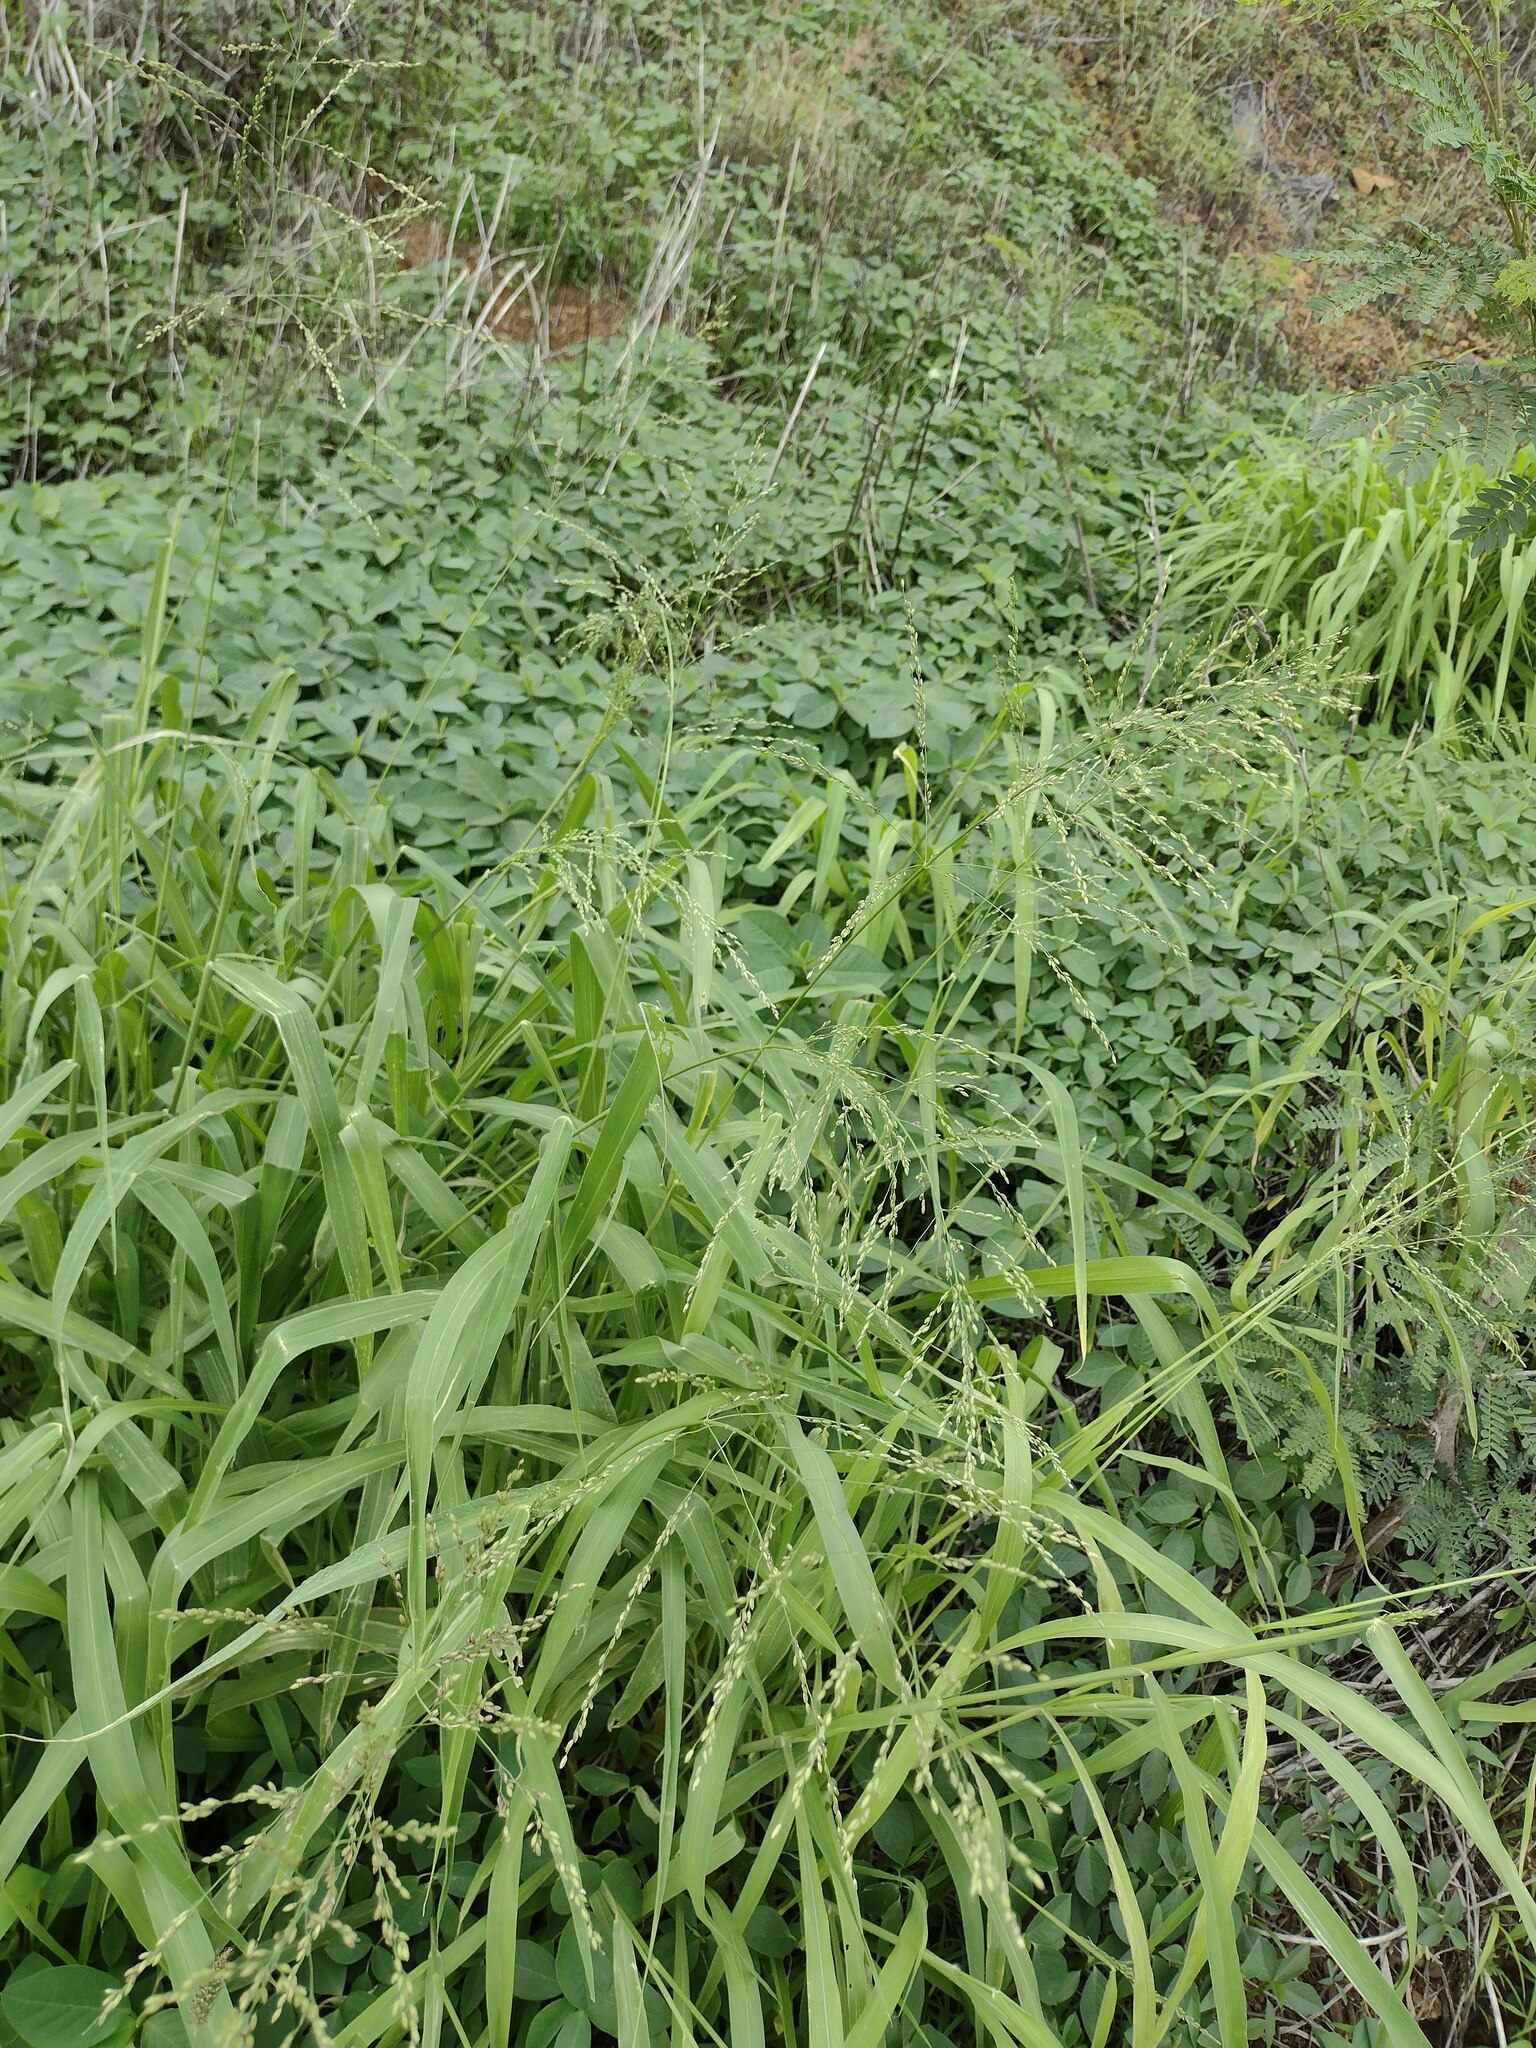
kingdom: Plantae
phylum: Tracheophyta
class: Liliopsida
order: Poales
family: Poaceae
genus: Megathyrsus
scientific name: Megathyrsus maximus
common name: Guineagrass
